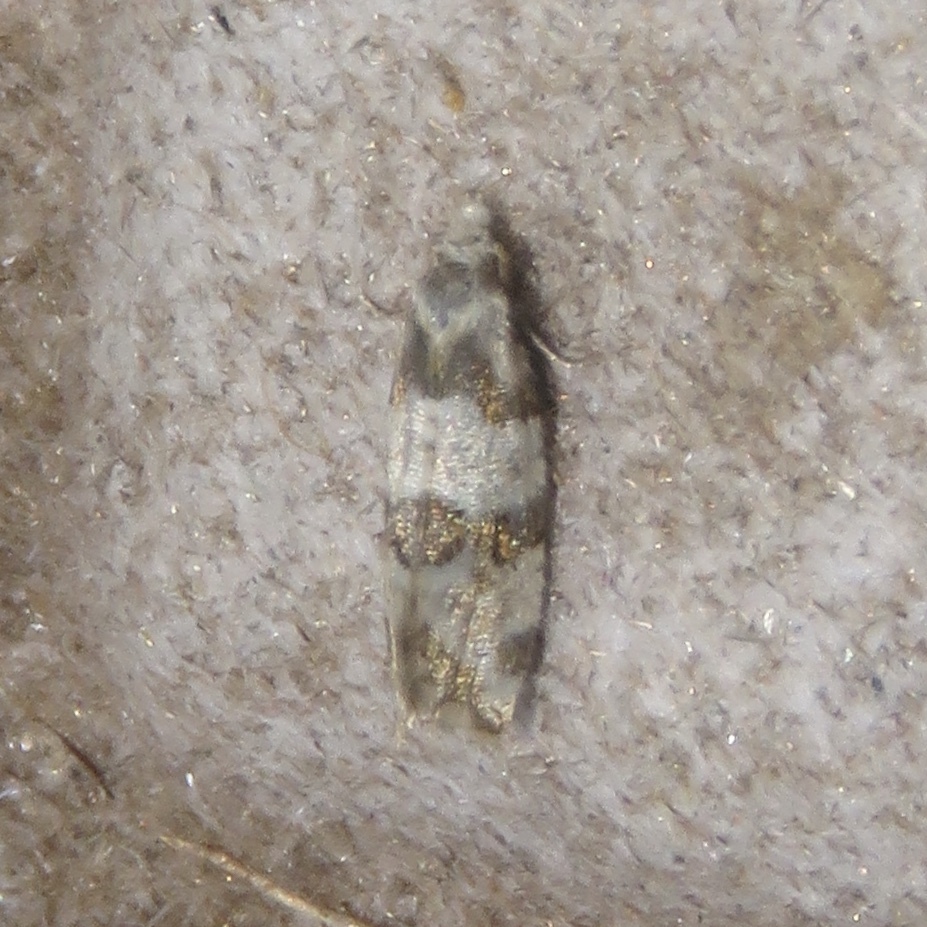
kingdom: Animalia
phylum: Arthropoda
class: Insecta
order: Lepidoptera
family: Tortricidae
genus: Aethes
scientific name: Aethes argentilimitana
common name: Silver-bordered aethes
